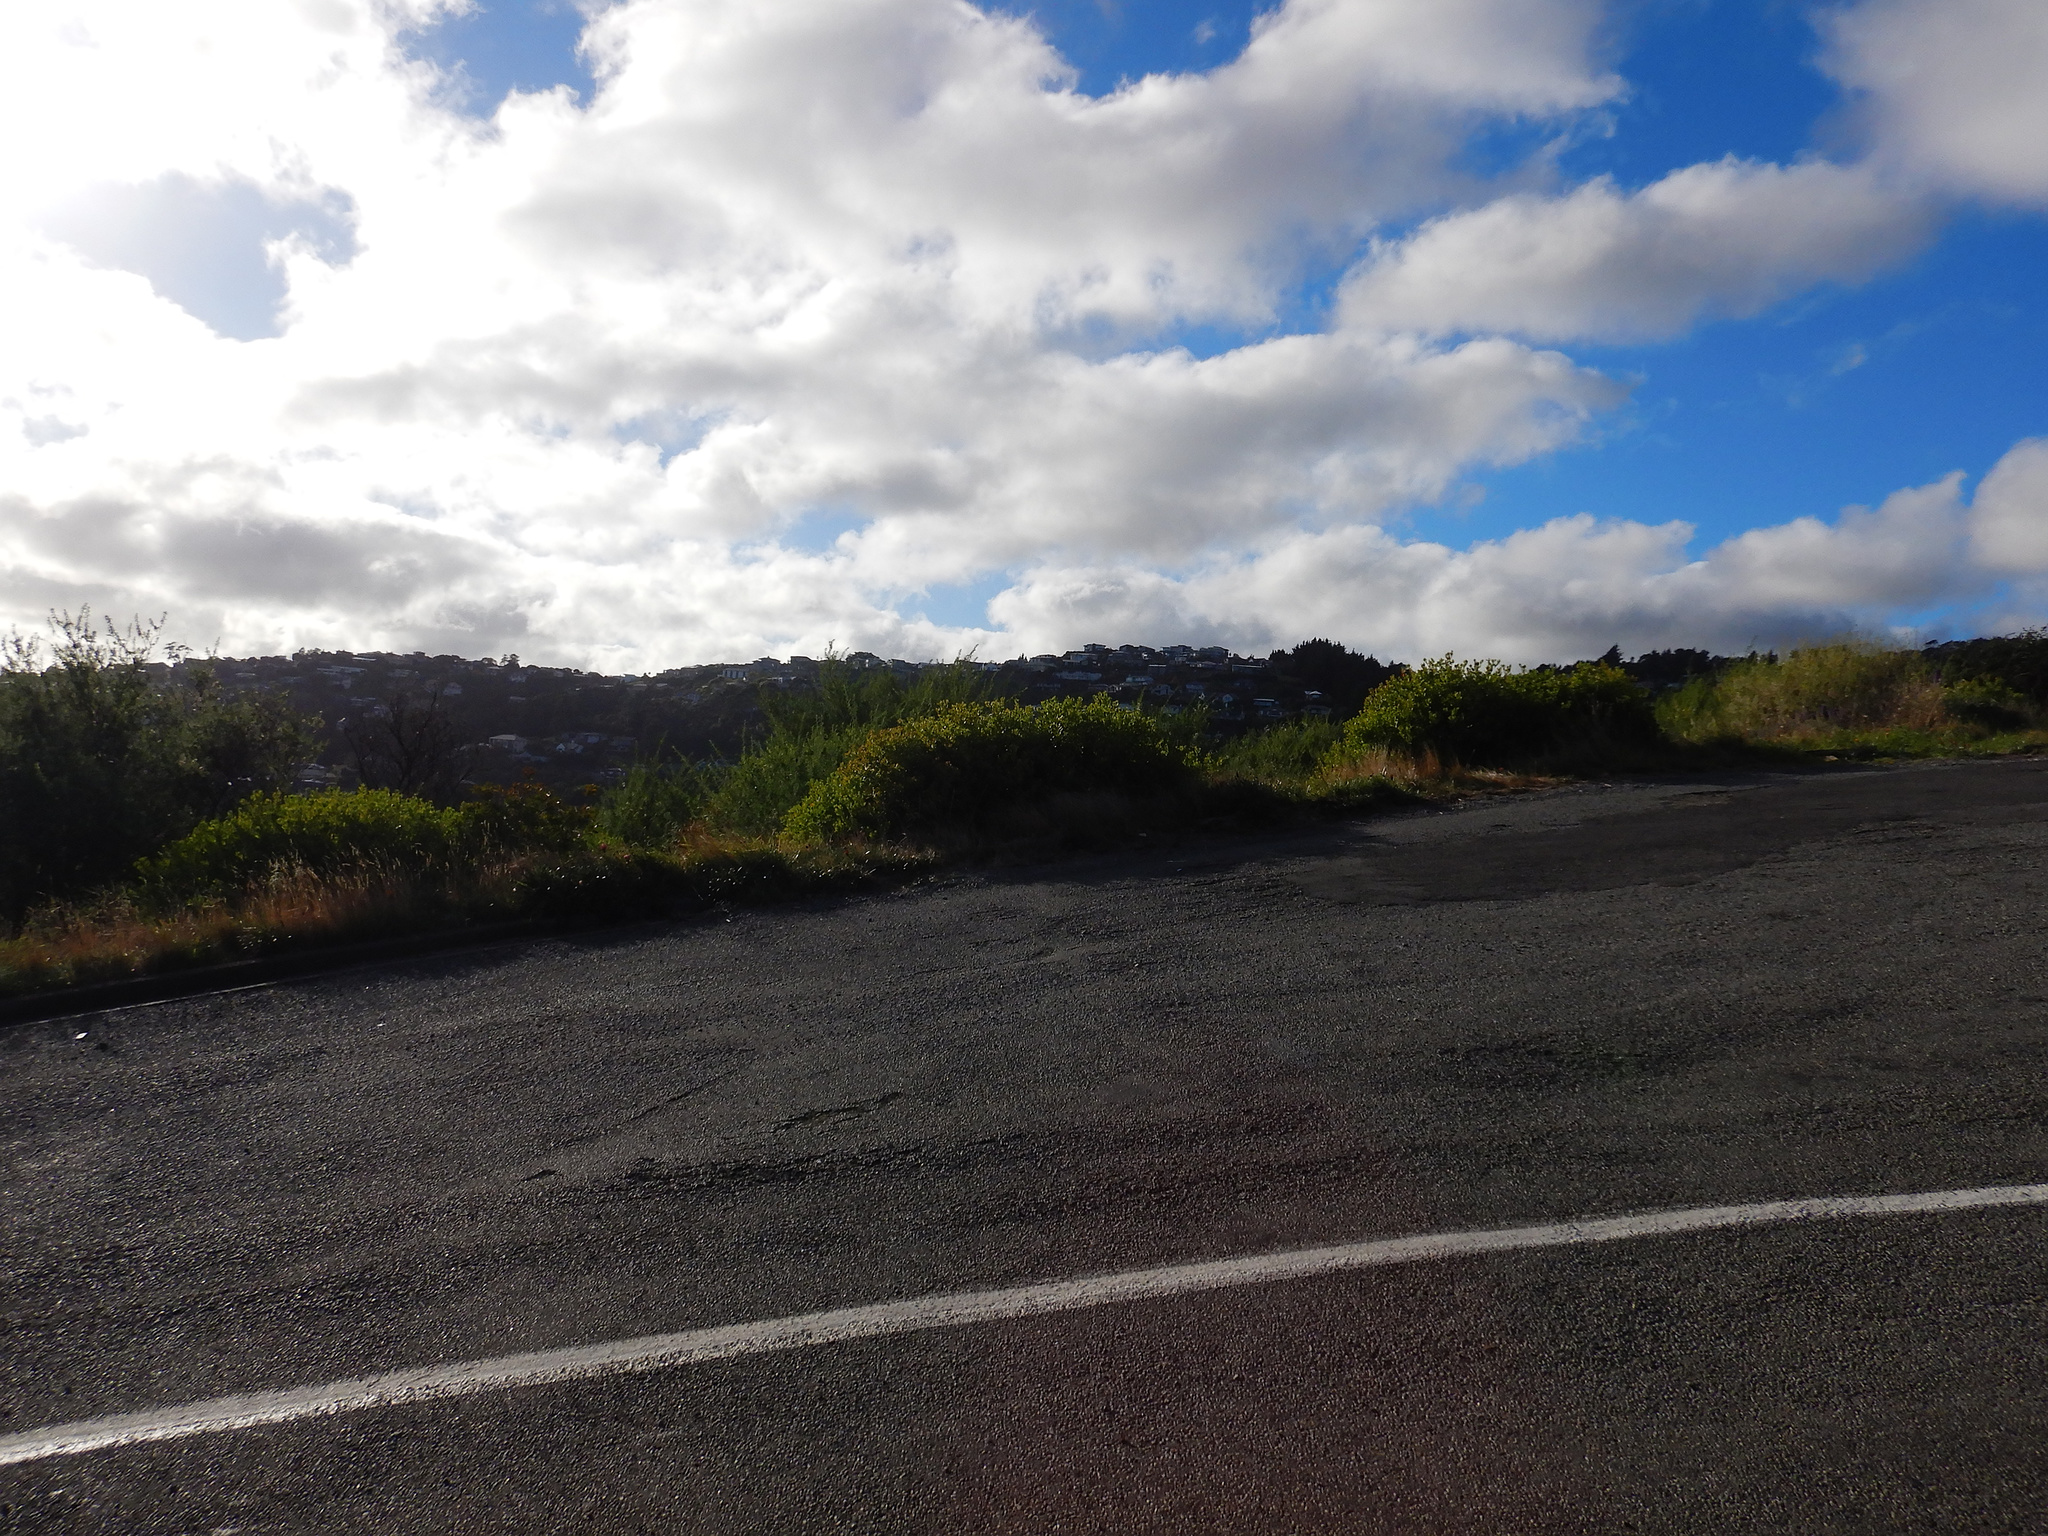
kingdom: Plantae
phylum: Tracheophyta
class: Magnoliopsida
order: Asterales
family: Asteraceae
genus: Osteospermum
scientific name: Osteospermum moniliferum
